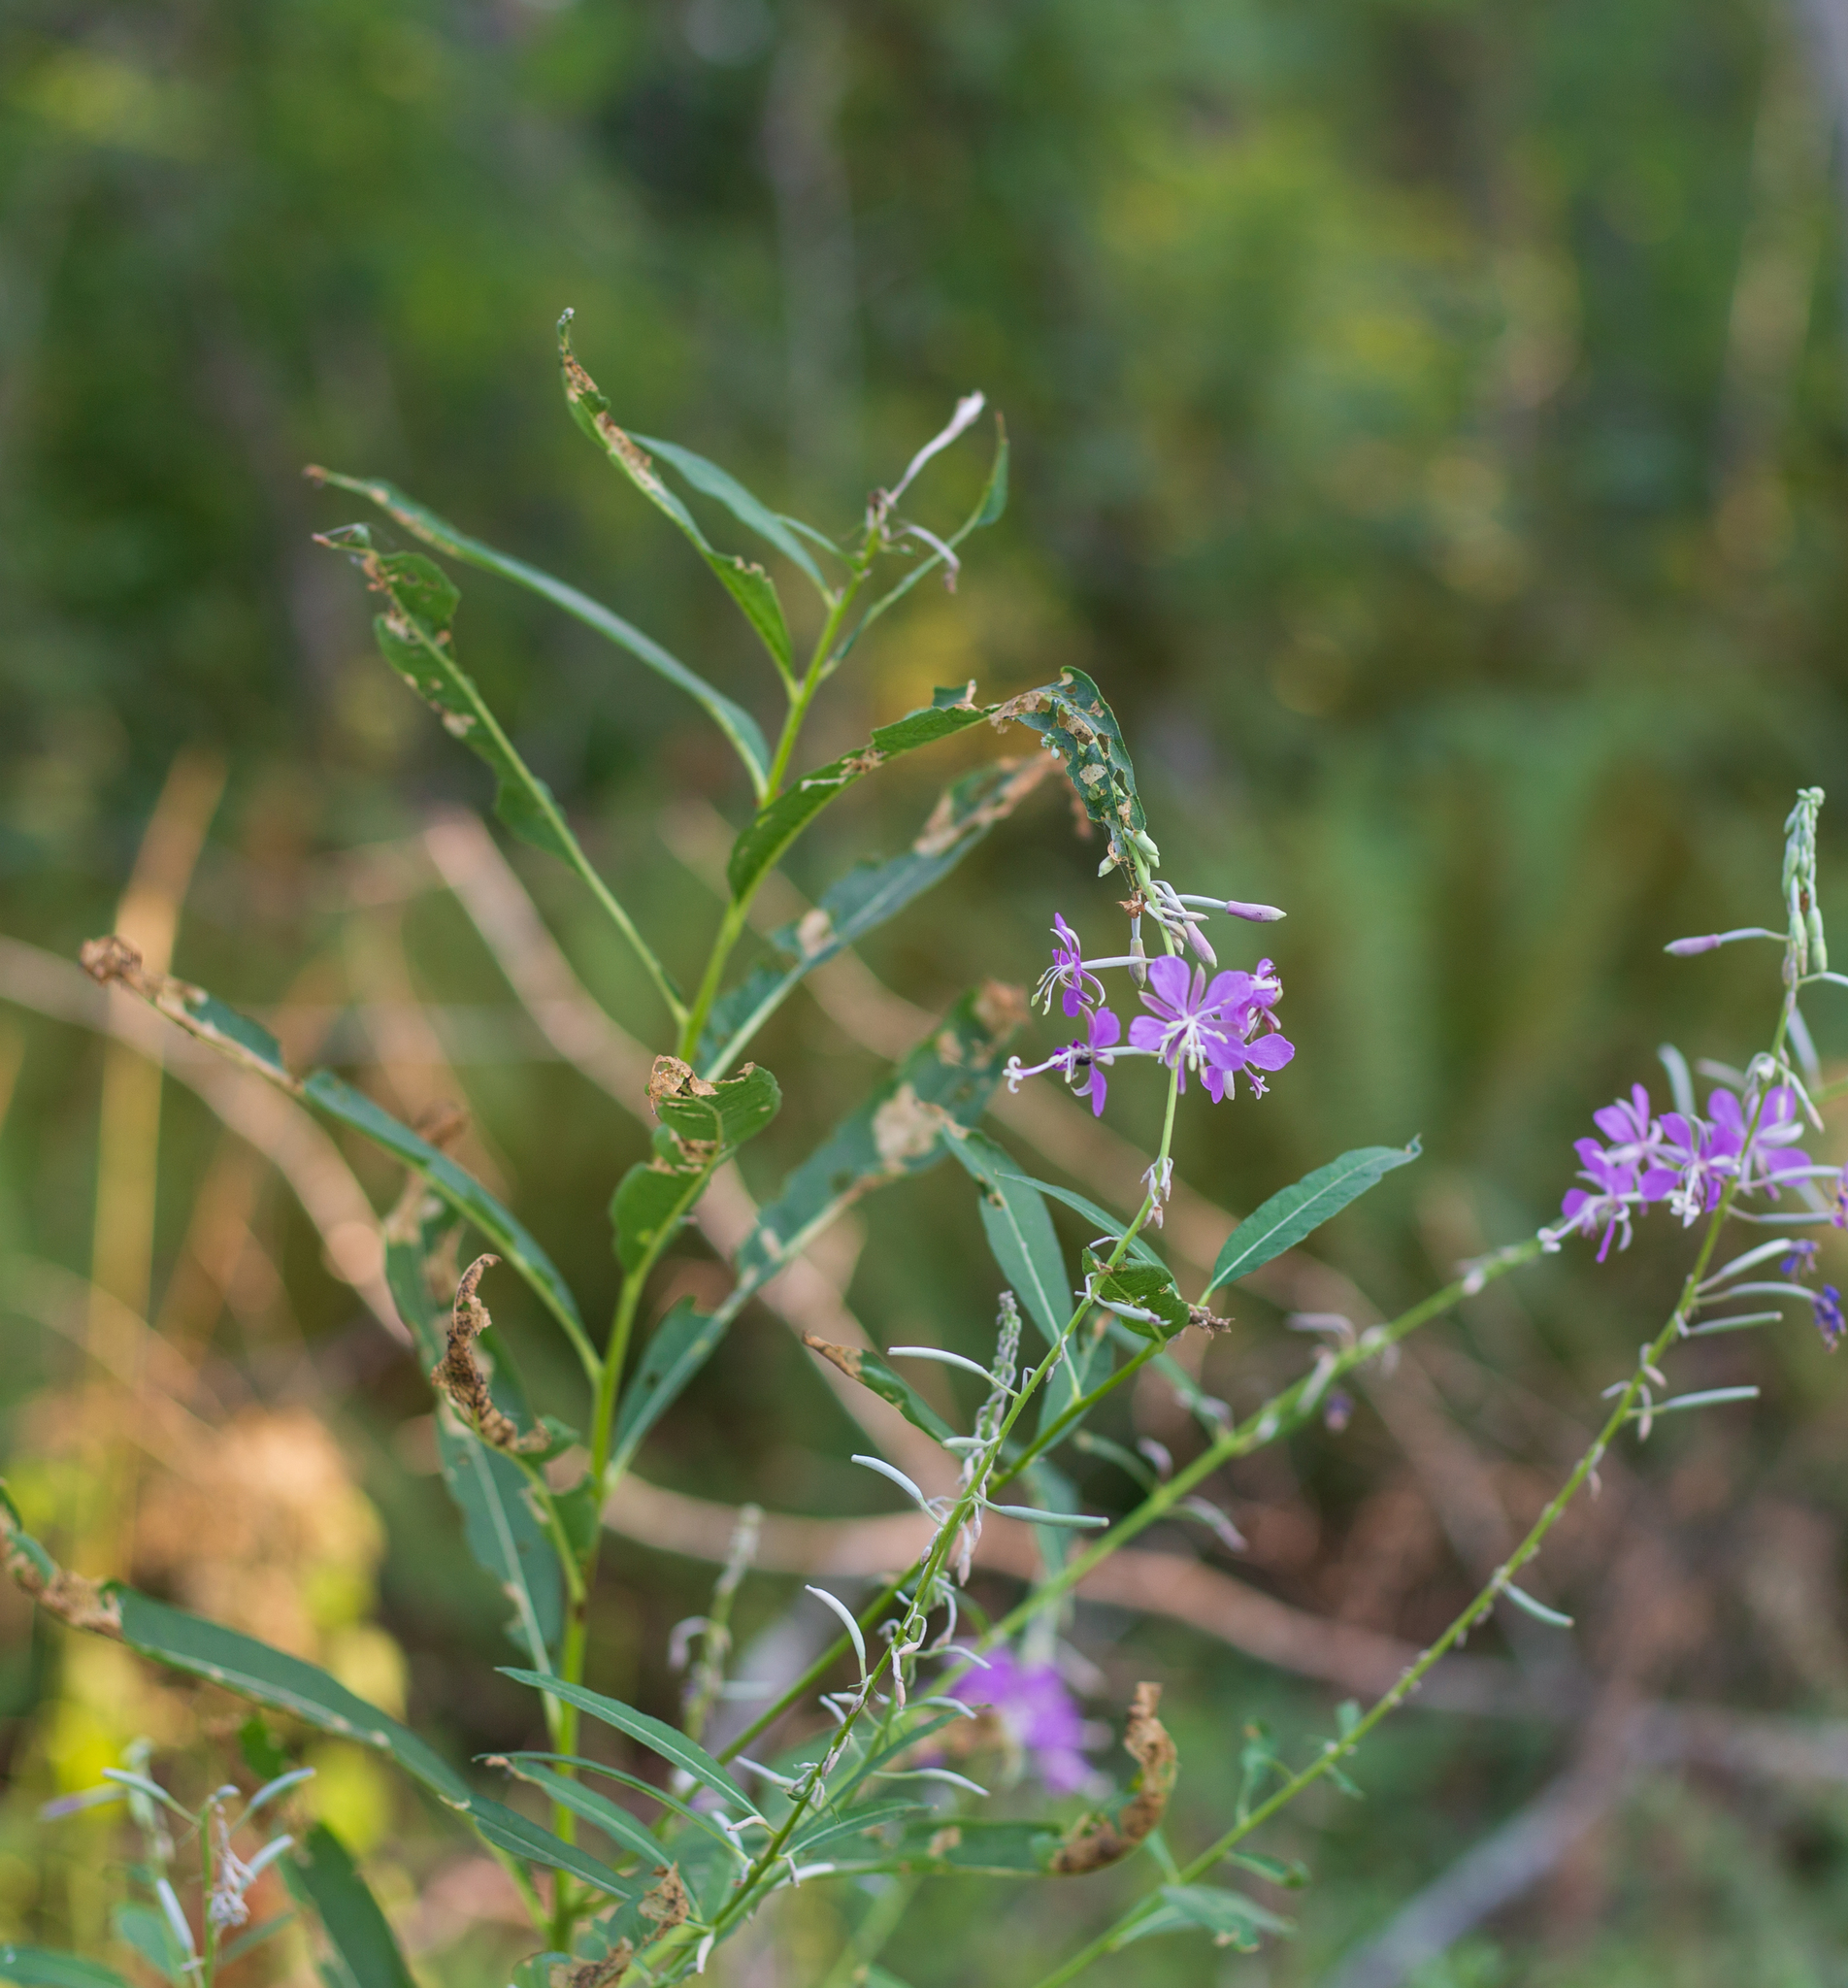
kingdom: Plantae
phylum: Tracheophyta
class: Magnoliopsida
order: Myrtales
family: Onagraceae
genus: Chamaenerion
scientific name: Chamaenerion angustifolium
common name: Fireweed
